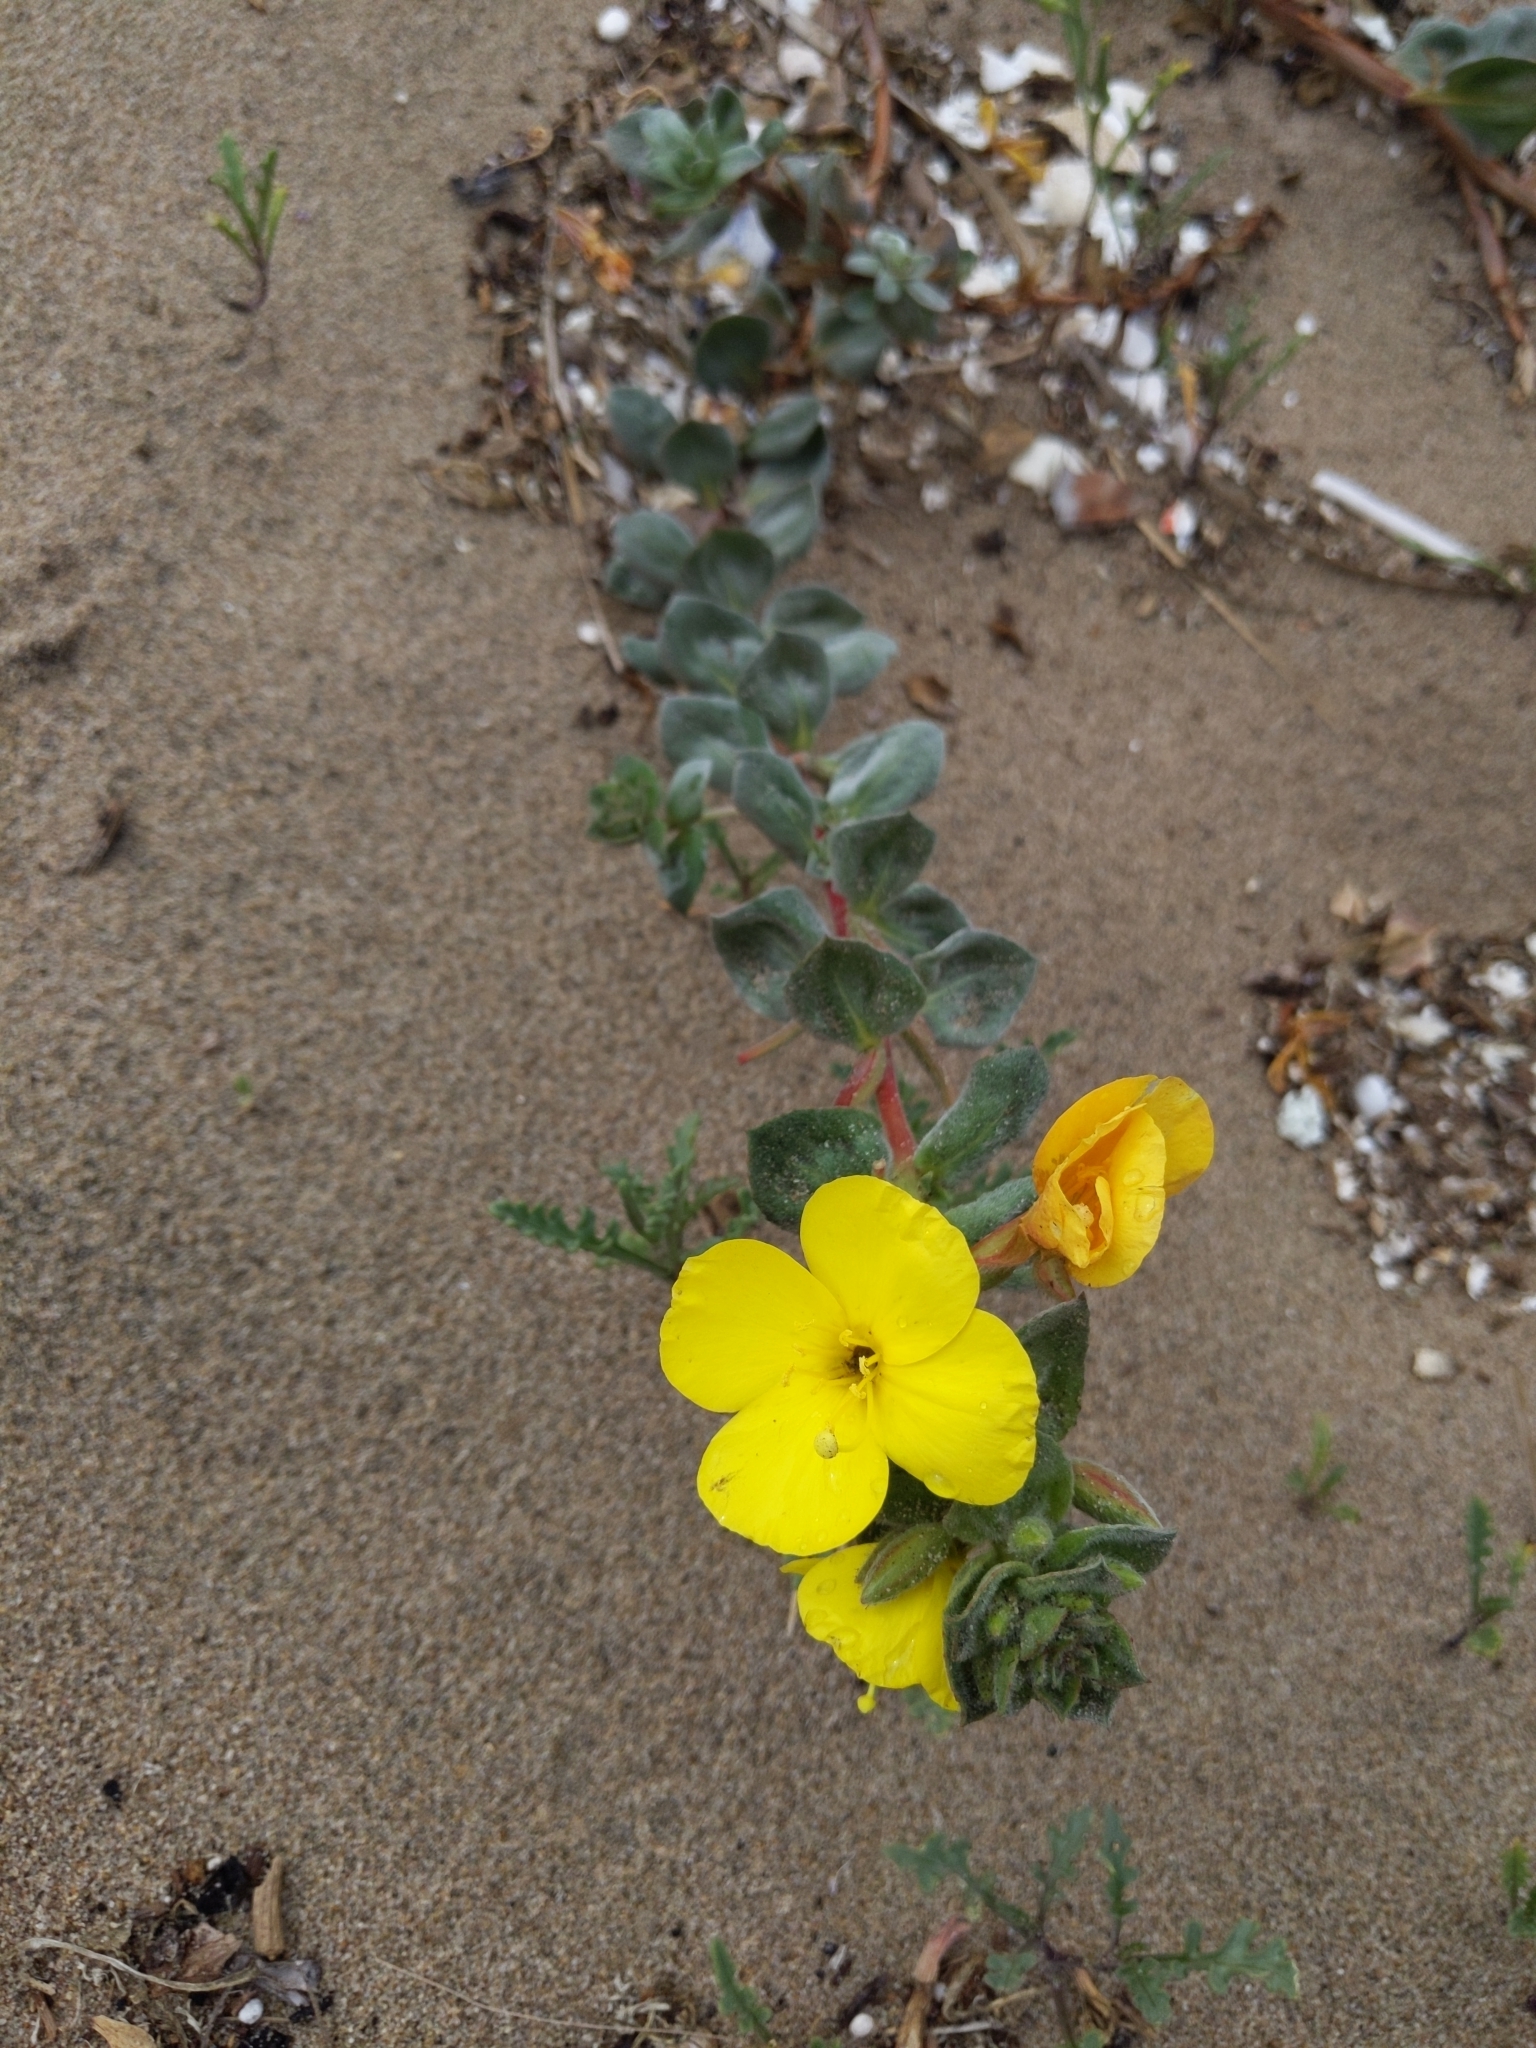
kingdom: Plantae
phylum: Tracheophyta
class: Magnoliopsida
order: Myrtales
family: Onagraceae
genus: Camissoniopsis
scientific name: Camissoniopsis cheiranthifolia
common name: Beach suncup
